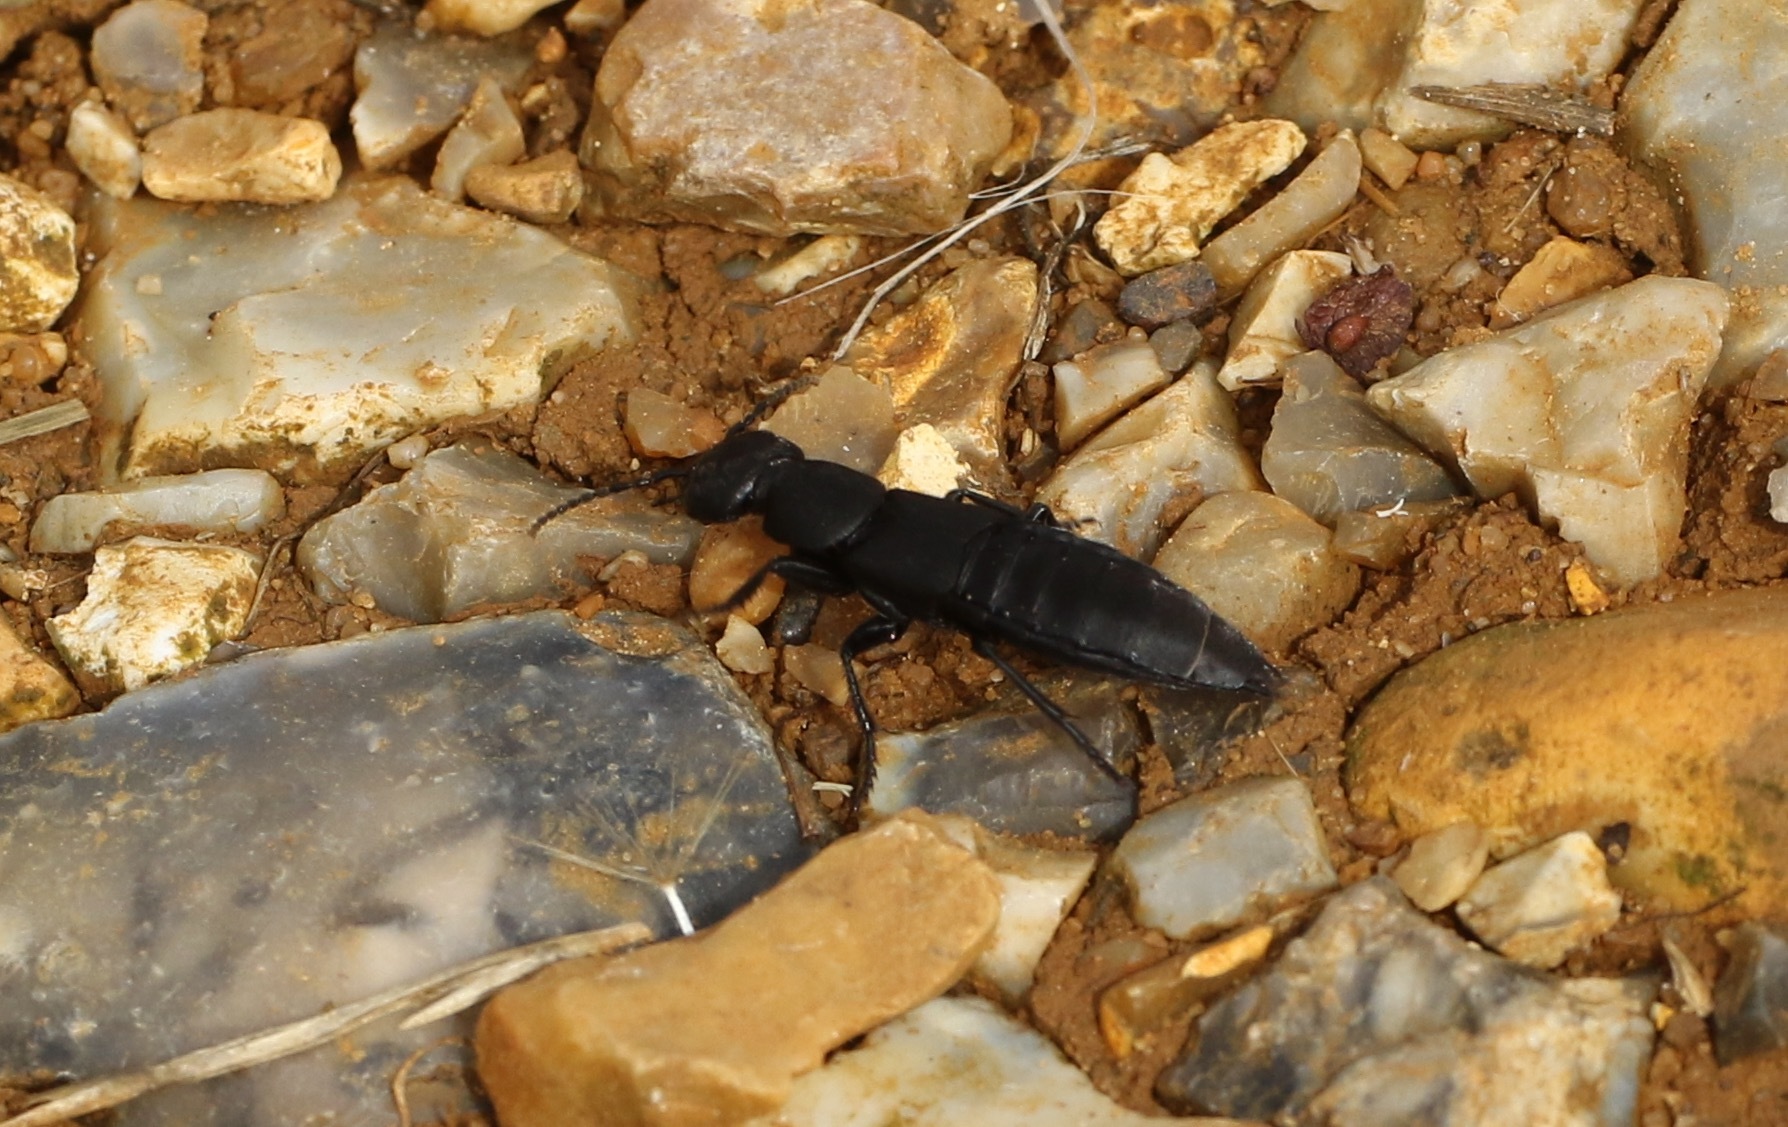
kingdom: Animalia
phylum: Arthropoda
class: Insecta
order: Coleoptera
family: Staphylinidae
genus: Ocypus
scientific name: Ocypus olens
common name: Devil's coach-horse
